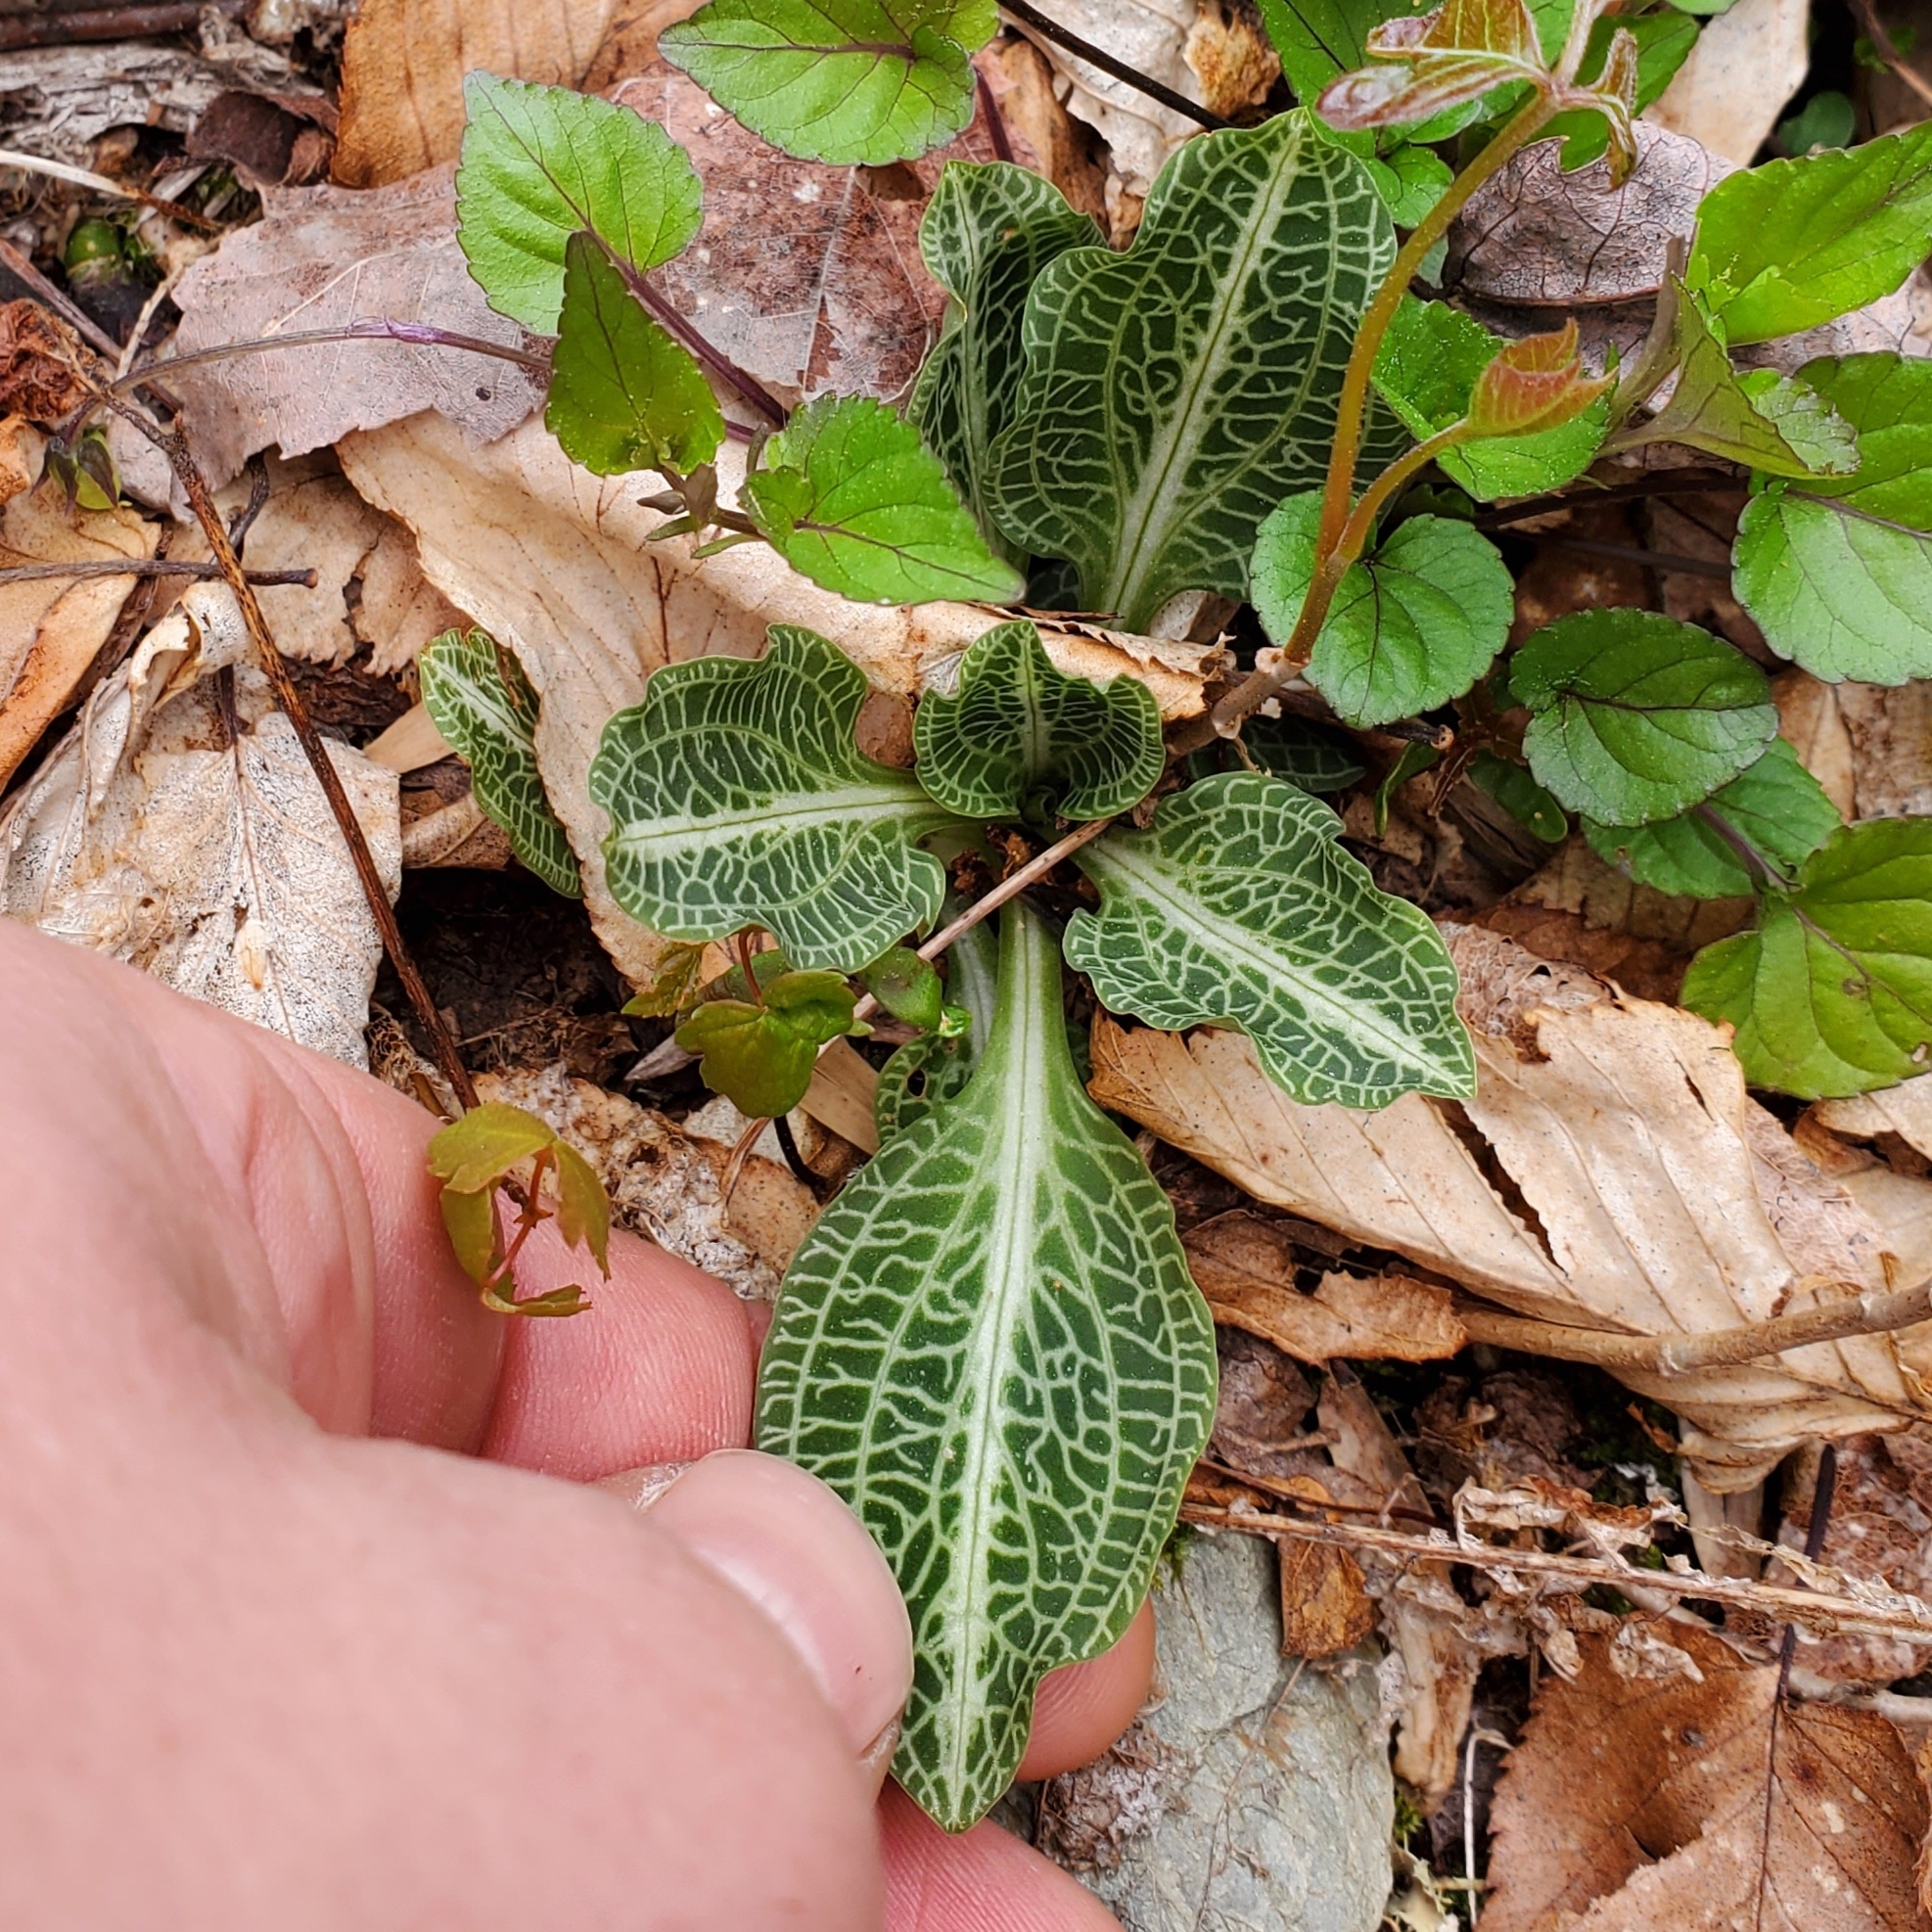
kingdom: Plantae
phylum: Tracheophyta
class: Liliopsida
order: Asparagales
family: Orchidaceae
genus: Goodyera
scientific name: Goodyera pubescens
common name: Downy rattlesnake-plantain
